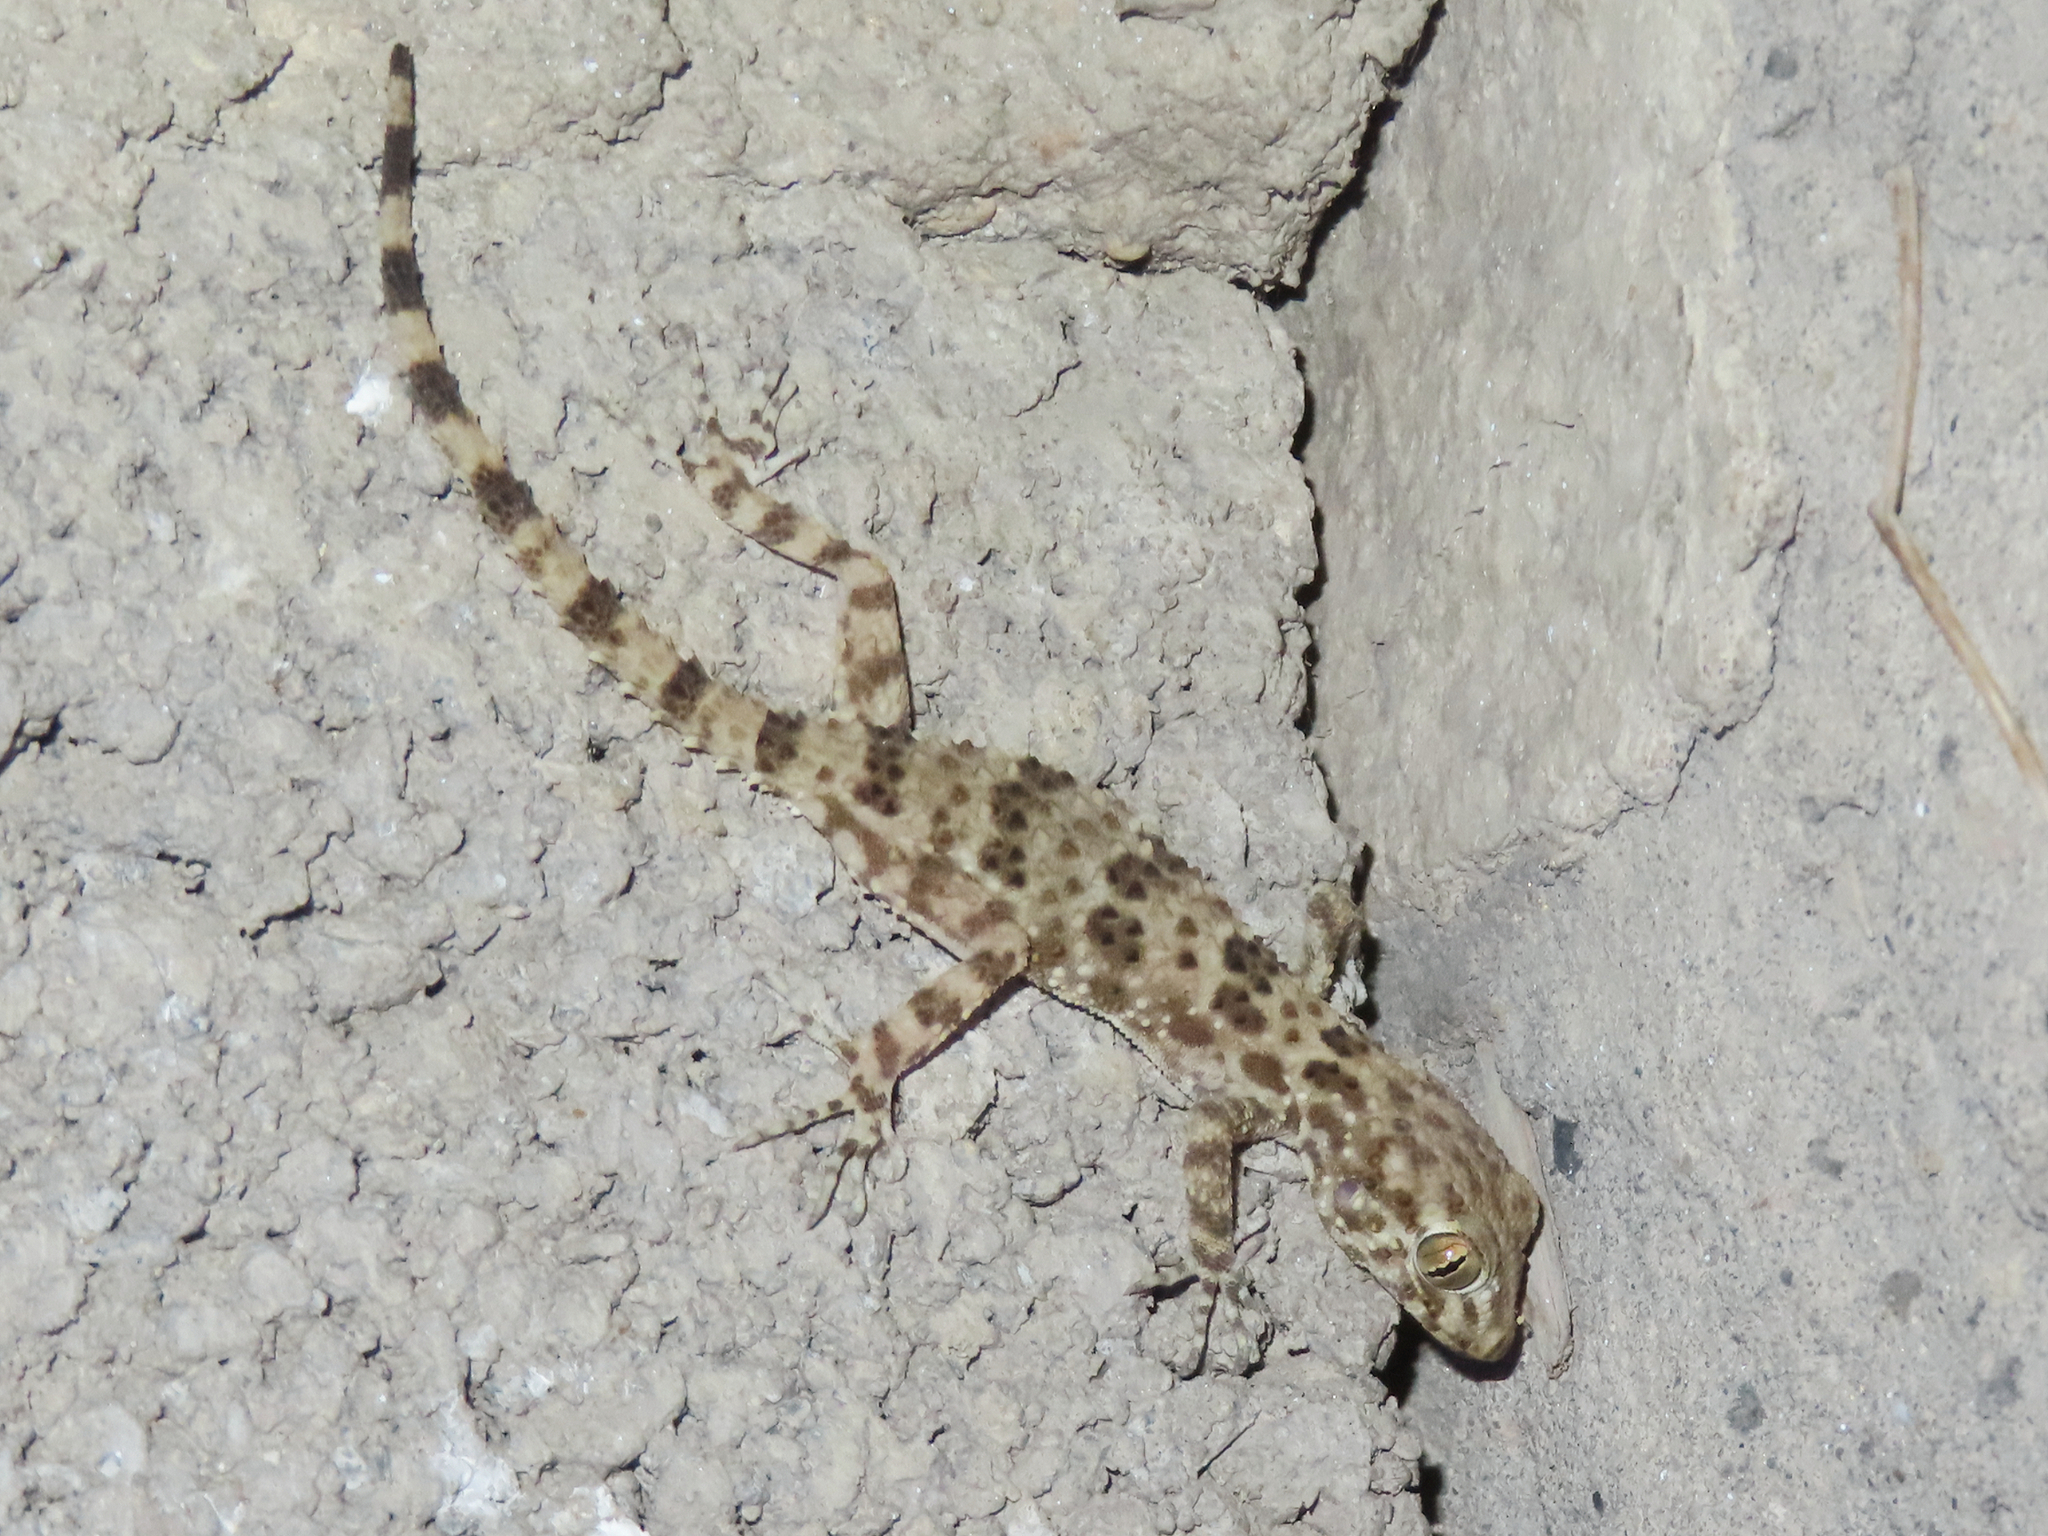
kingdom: Animalia
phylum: Chordata
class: Squamata
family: Gekkonidae
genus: Tenuidactylus
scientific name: Tenuidactylus caspius
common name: Caspian bent-toed gecko
